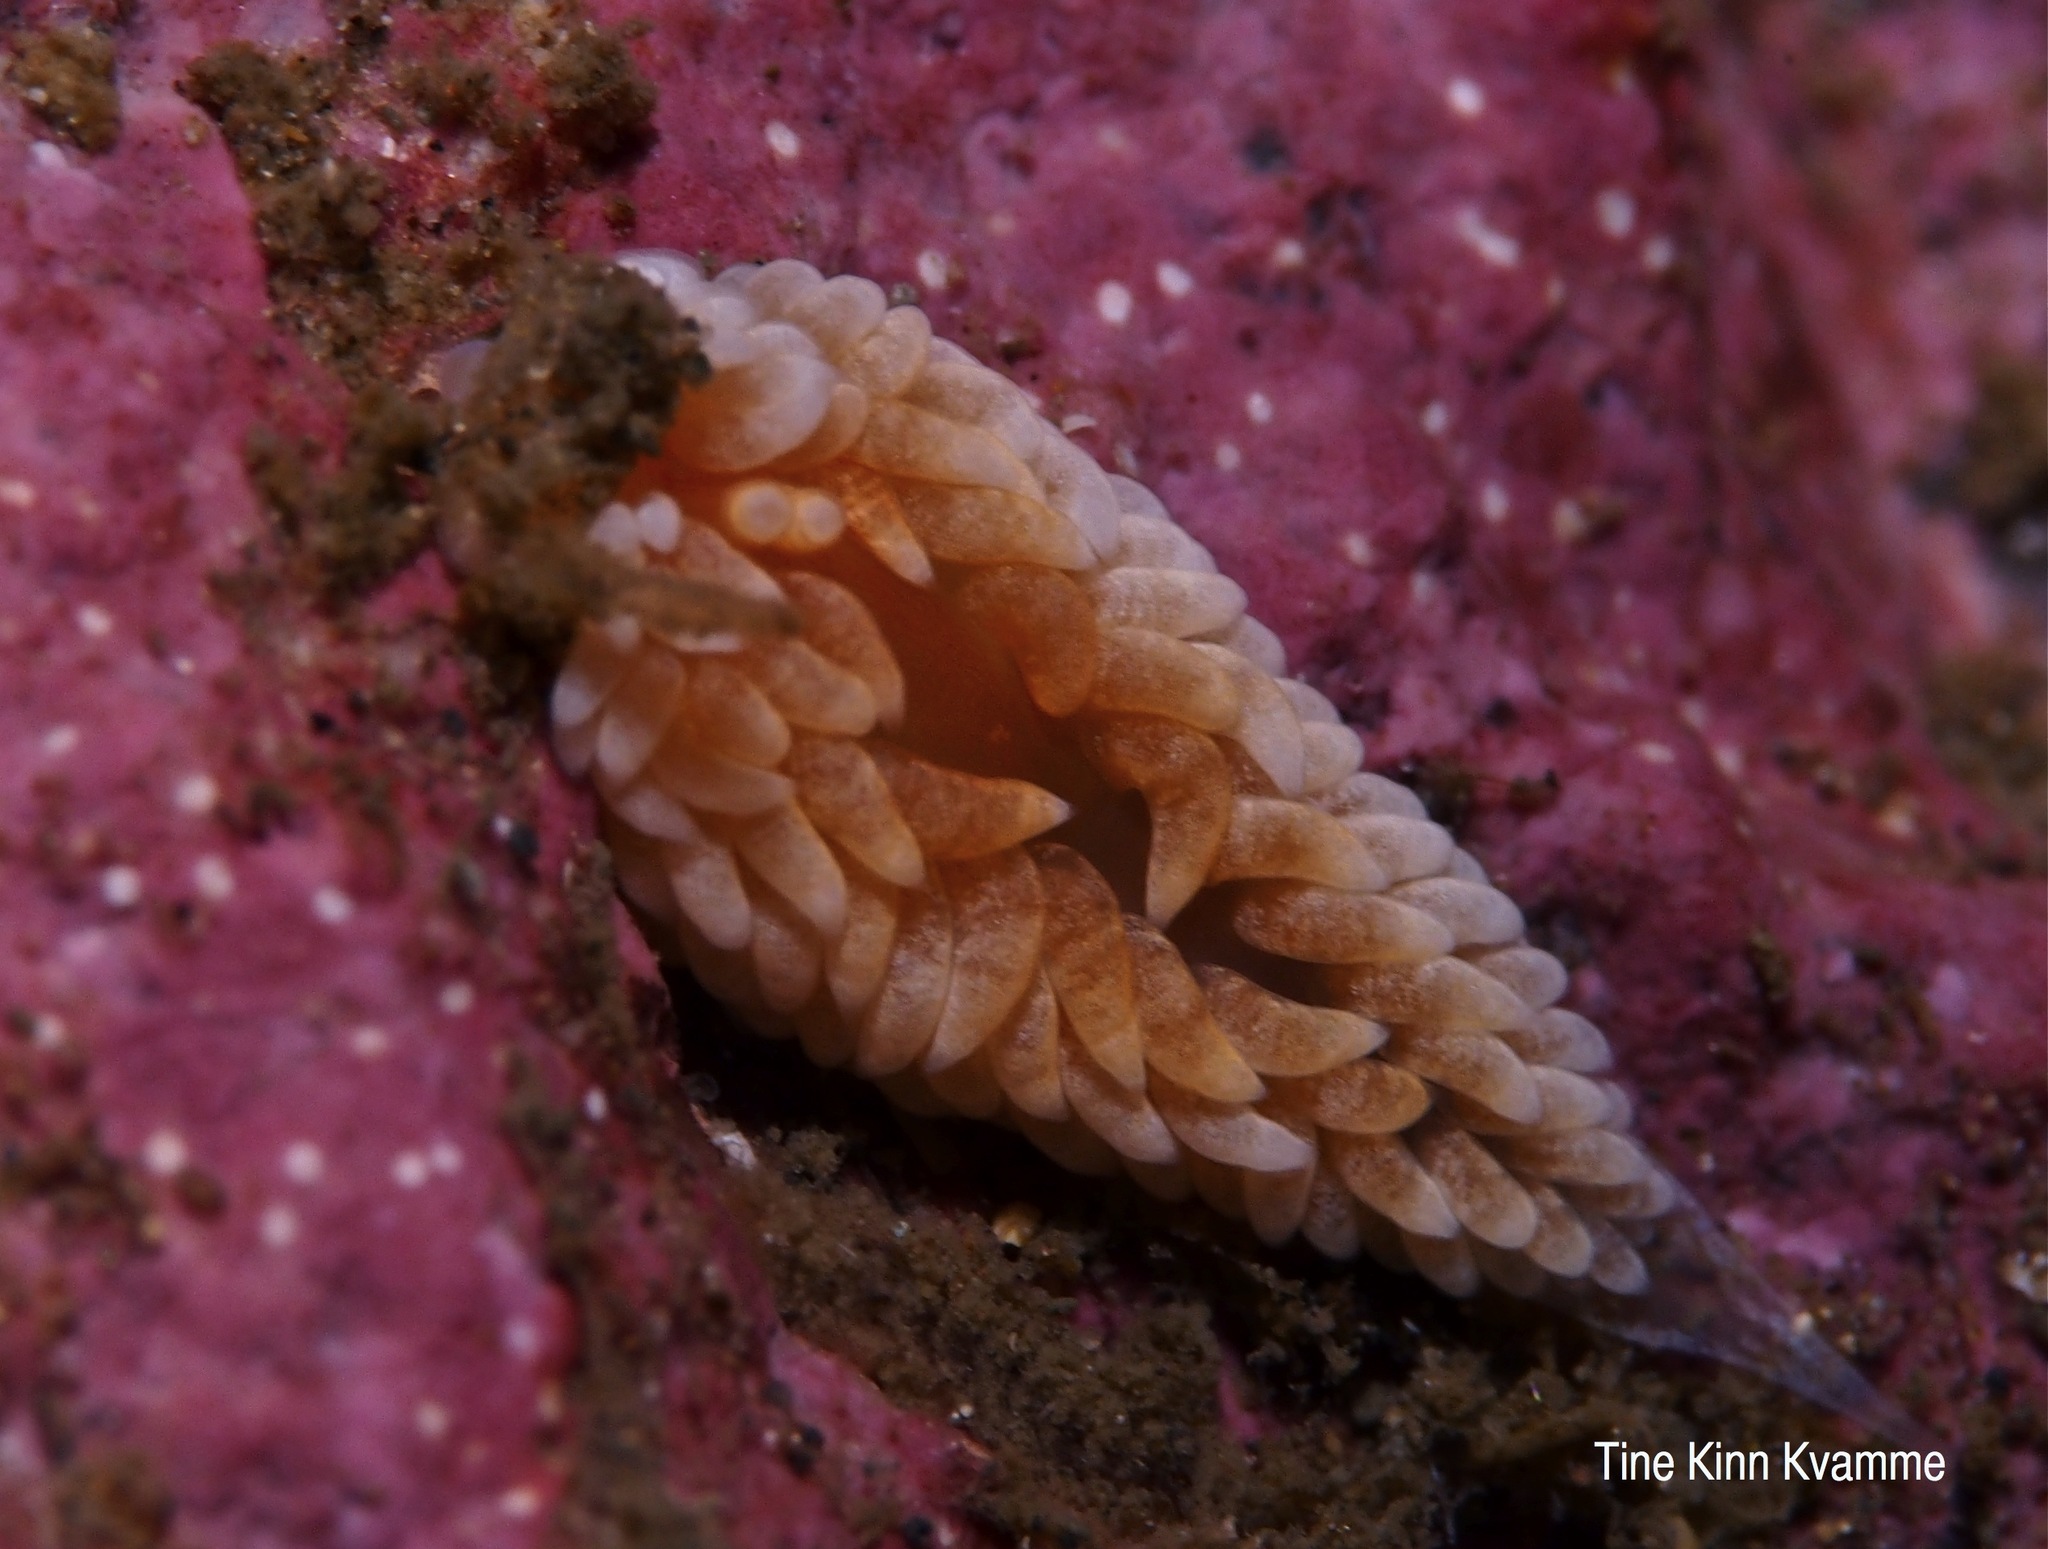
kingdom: Animalia
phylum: Mollusca
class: Gastropoda
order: Nudibranchia
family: Aeolidiidae
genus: Aeolidiella
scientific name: Aeolidiella glauca
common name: Orange-brown aeolid
